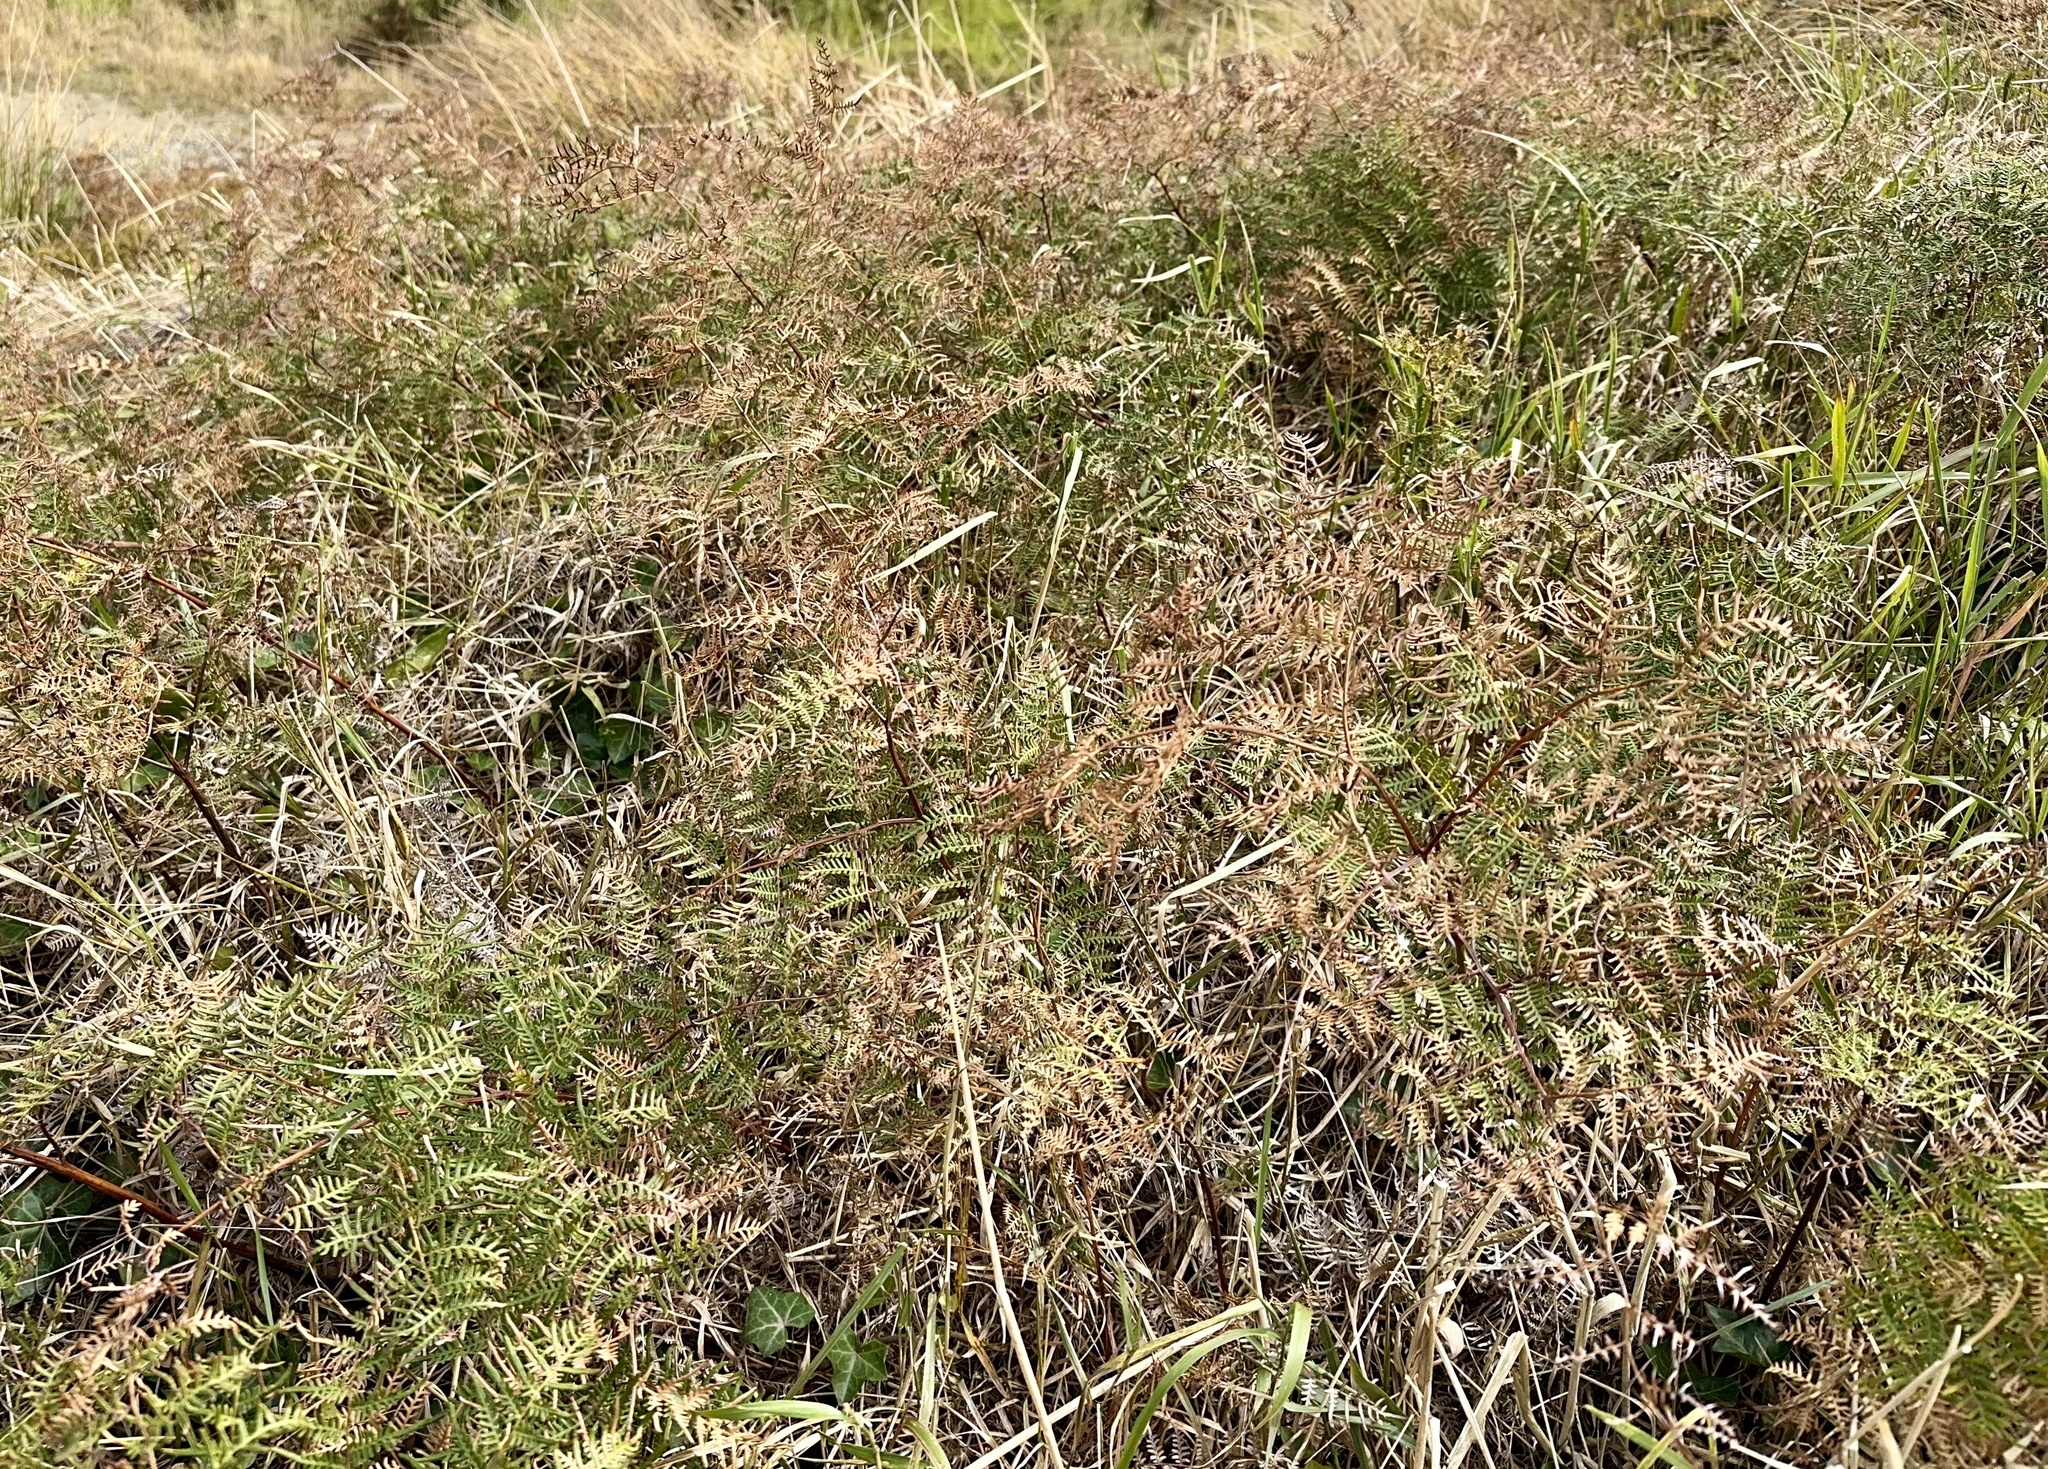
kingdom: Plantae
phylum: Tracheophyta
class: Polypodiopsida
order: Polypodiales
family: Dennstaedtiaceae
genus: Pteridium
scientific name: Pteridium esculentum
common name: Bracken fern
